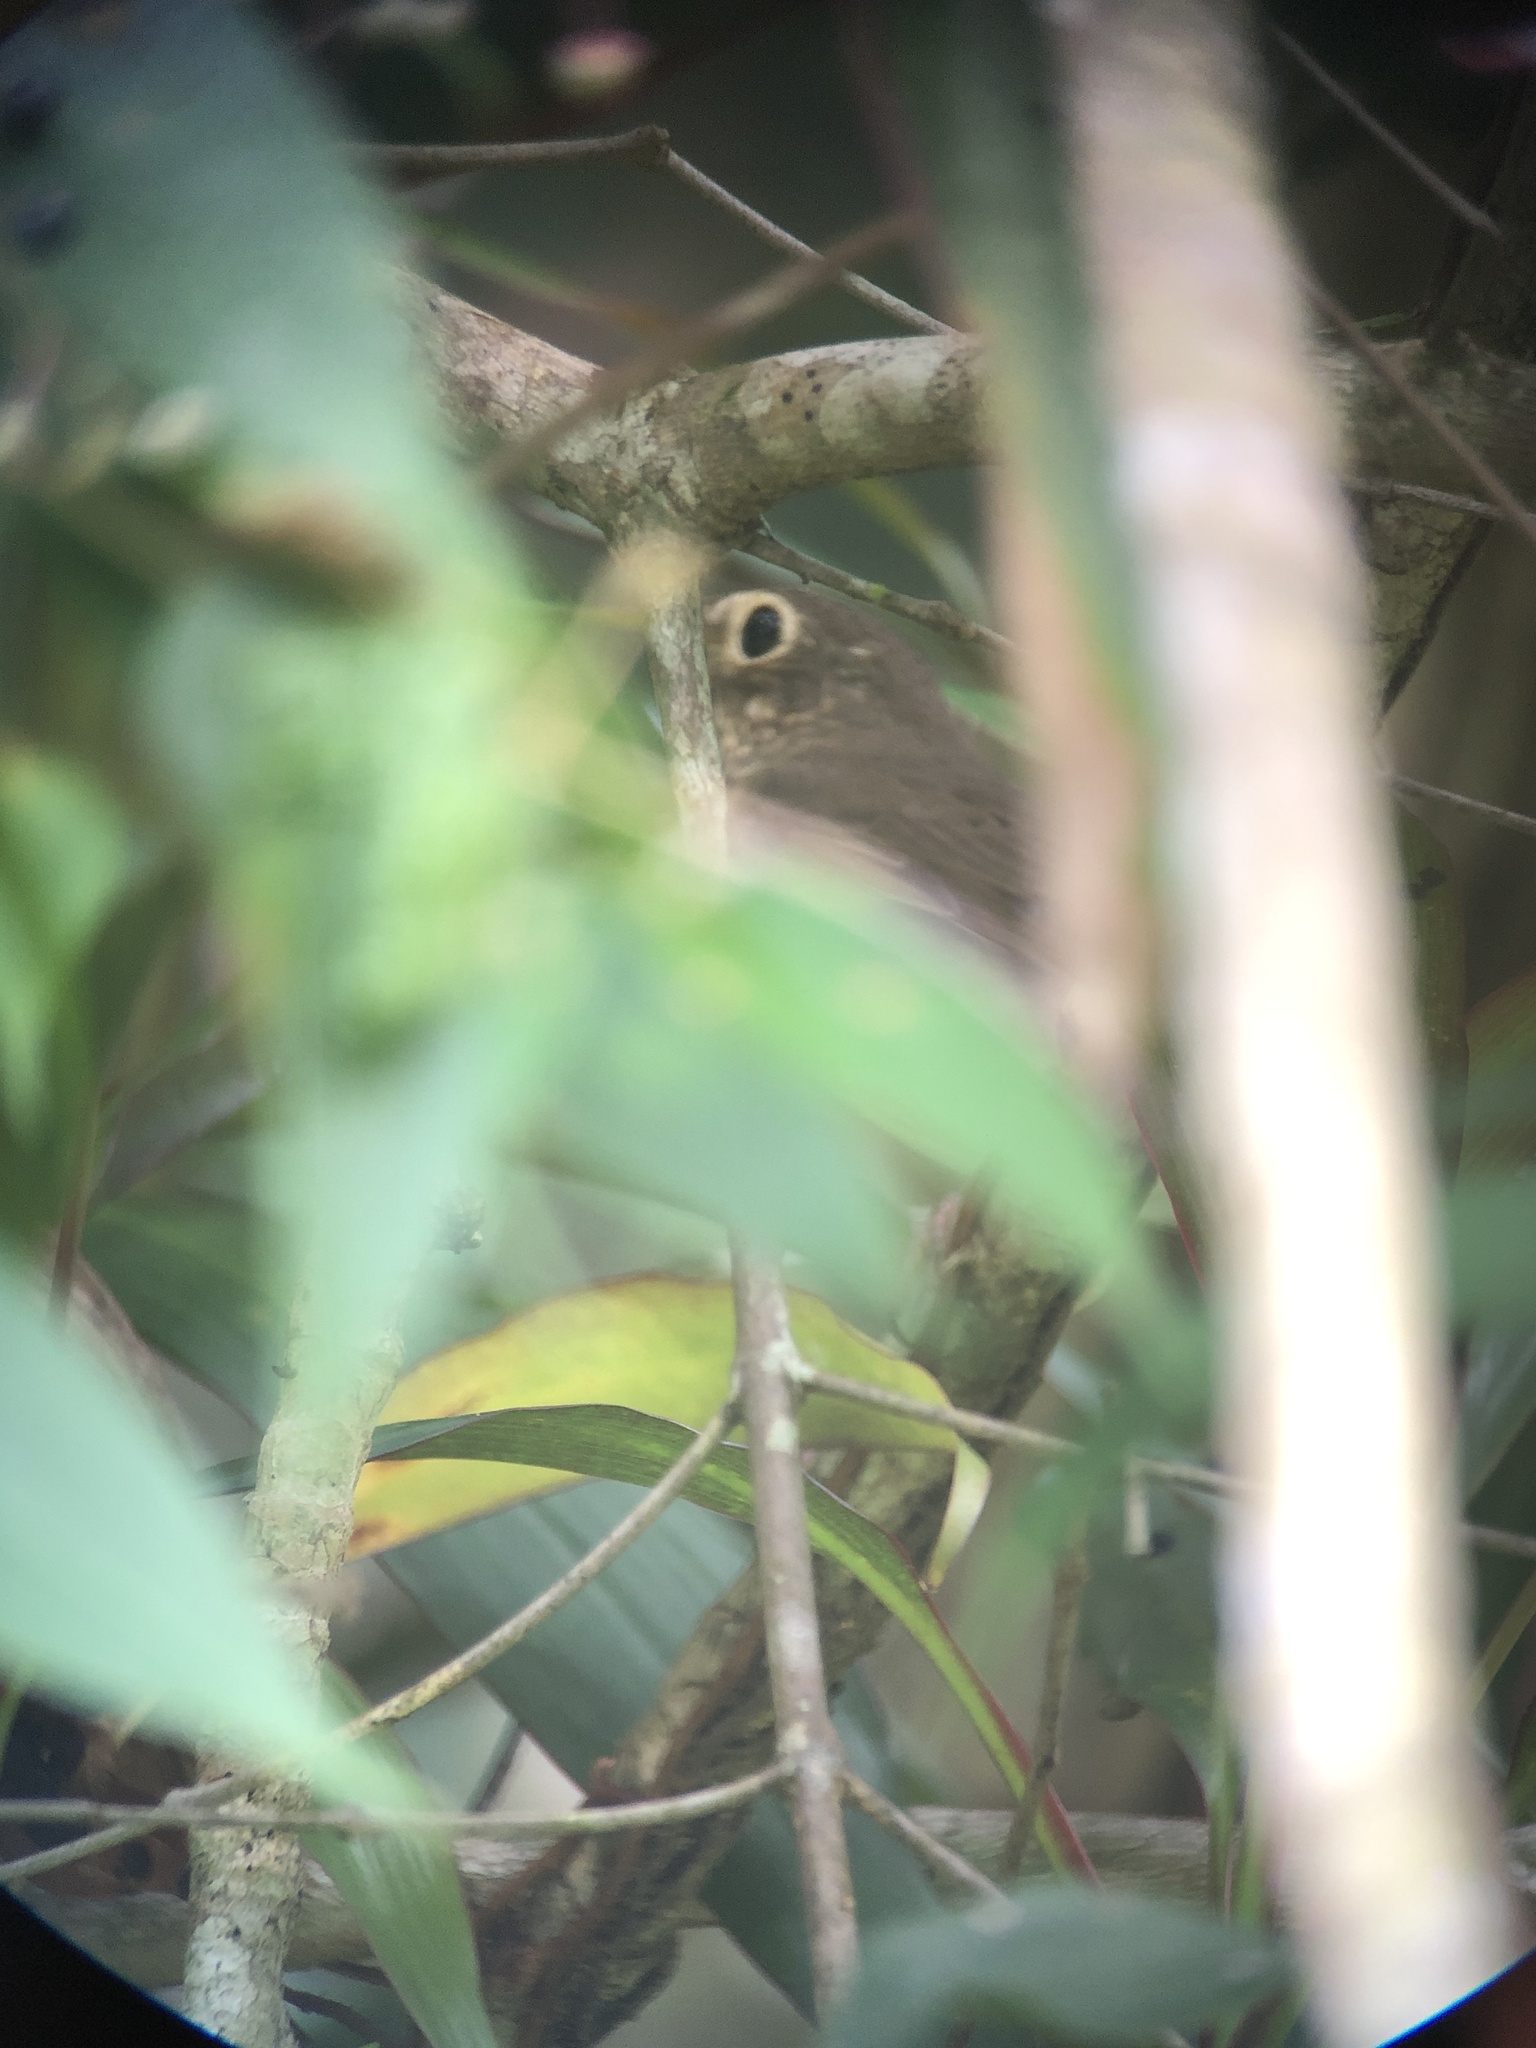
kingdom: Animalia
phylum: Chordata
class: Aves
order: Passeriformes
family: Turdidae
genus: Catharus
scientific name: Catharus ustulatus
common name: Swainson's thrush
